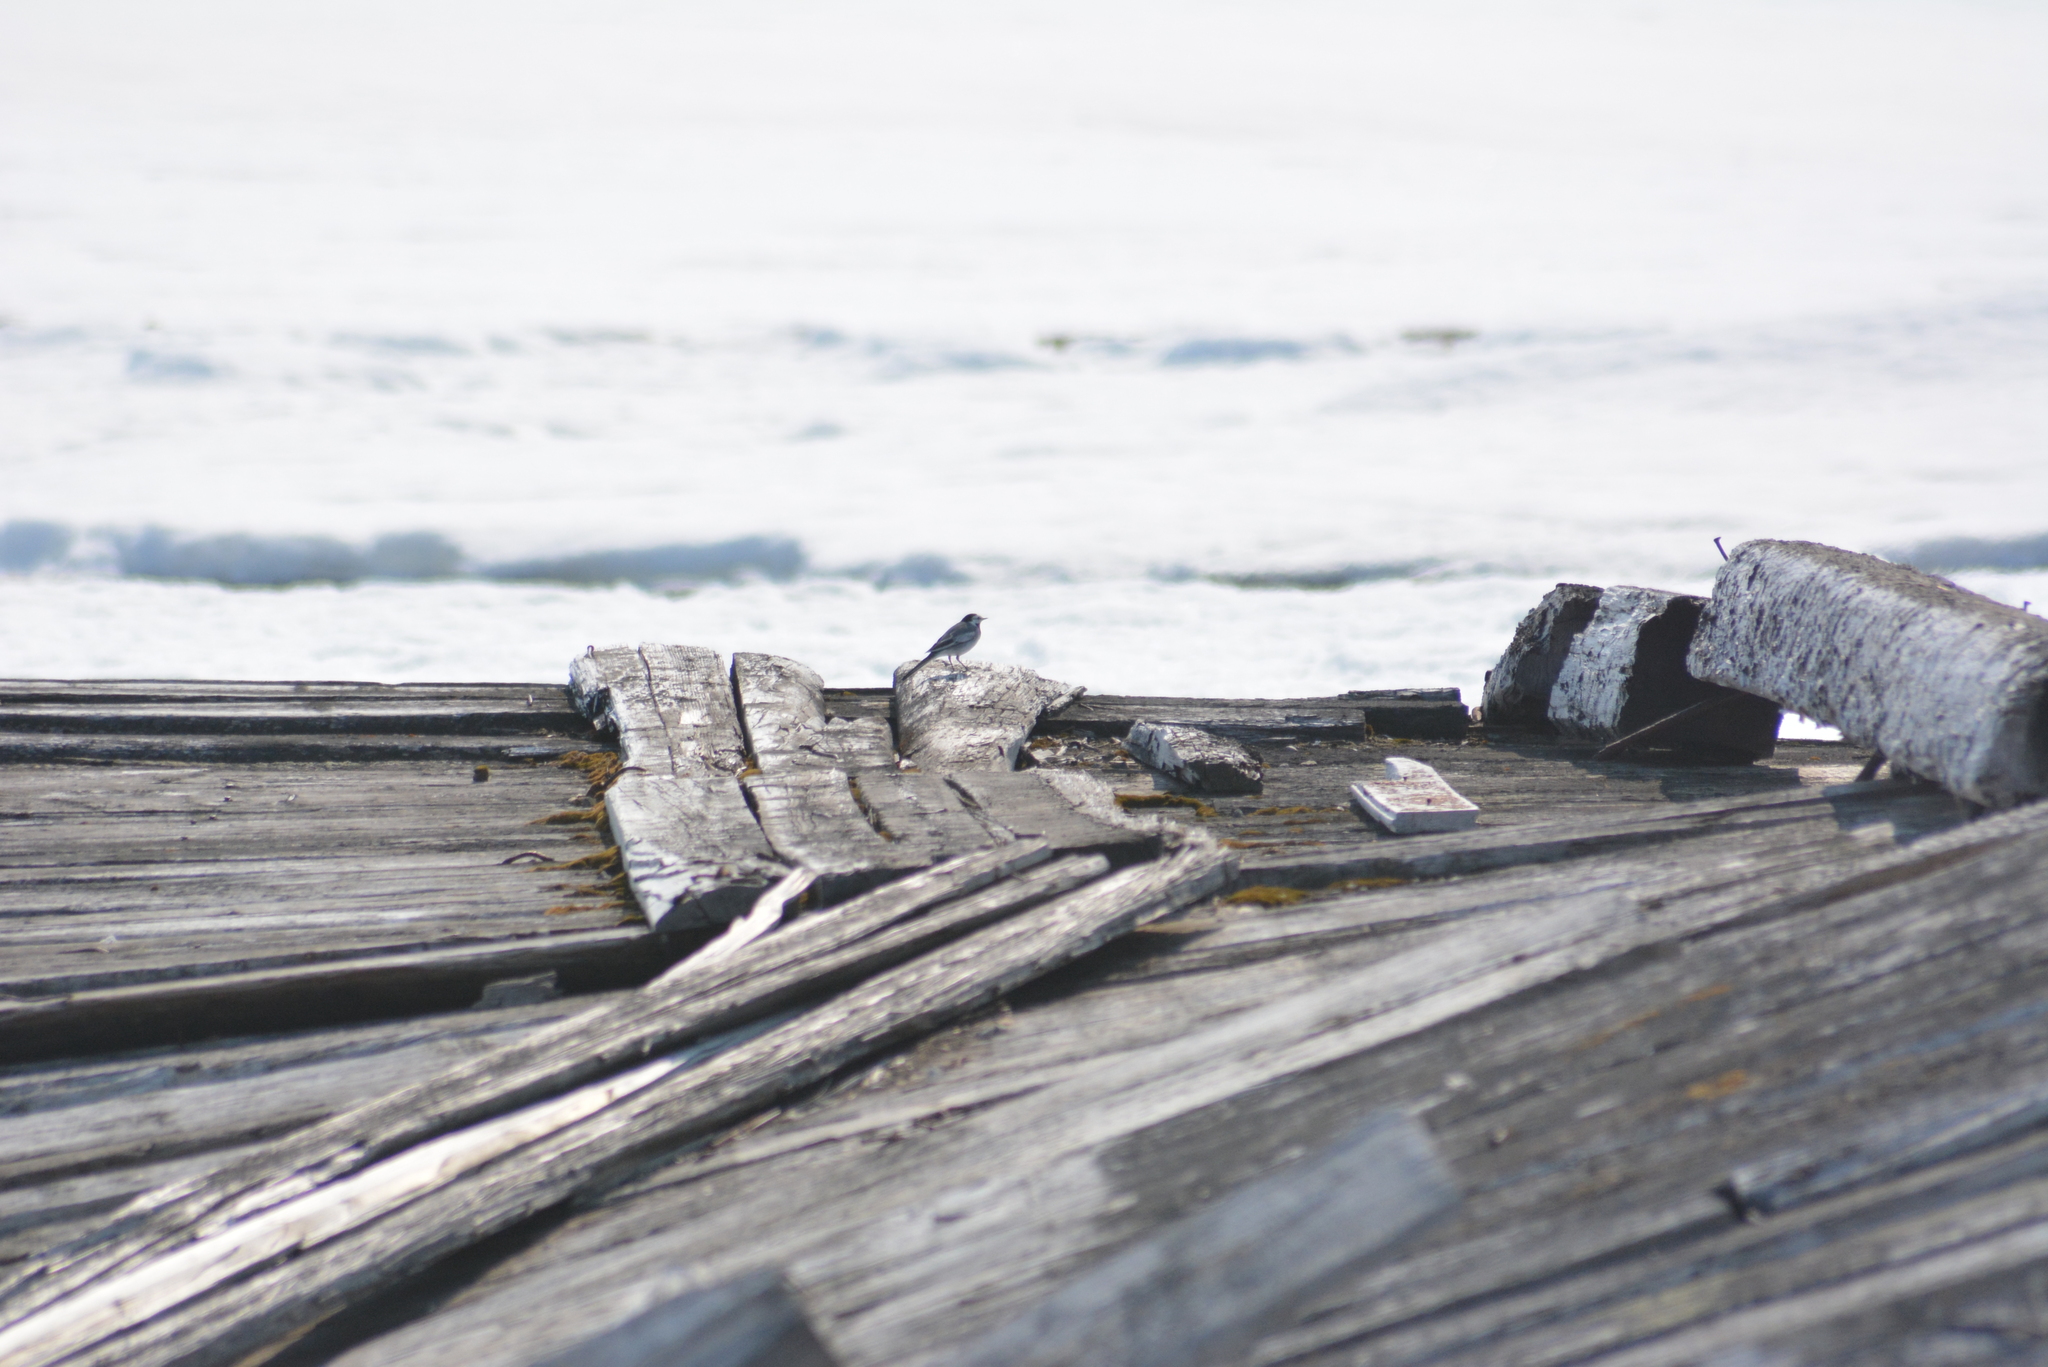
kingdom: Animalia
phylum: Chordata
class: Aves
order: Passeriformes
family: Motacillidae
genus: Motacilla
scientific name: Motacilla alba
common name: White wagtail
